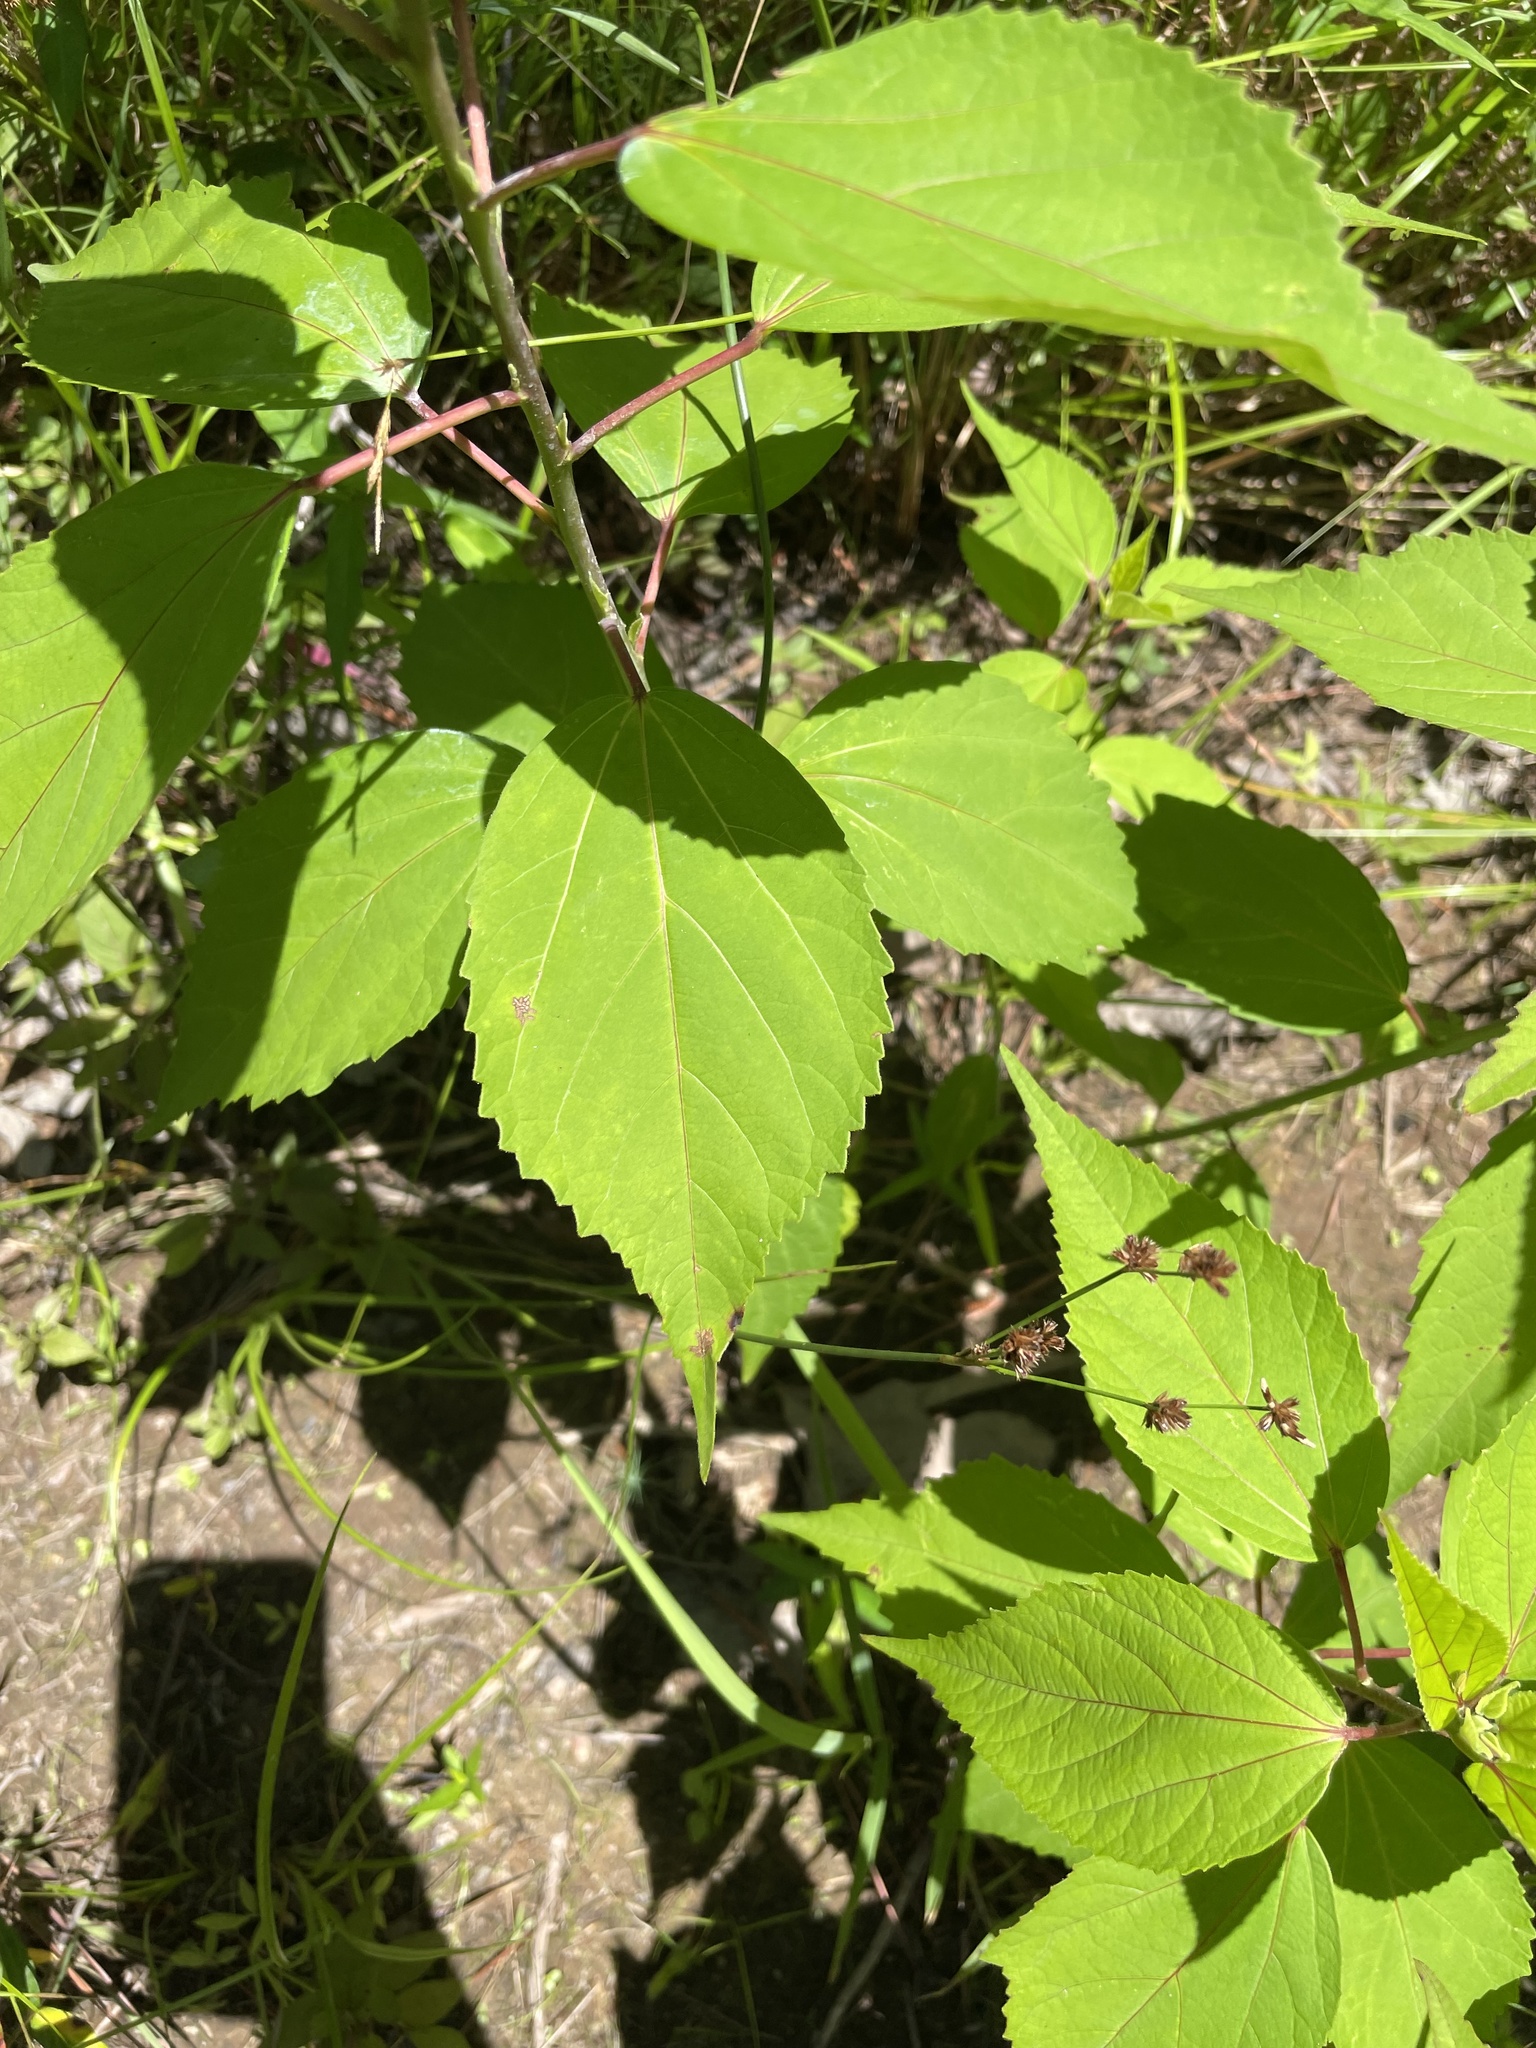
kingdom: Plantae
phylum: Tracheophyta
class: Magnoliopsida
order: Malvales
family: Malvaceae
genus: Hibiscus
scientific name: Hibiscus moscheutos
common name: Common rose-mallow
